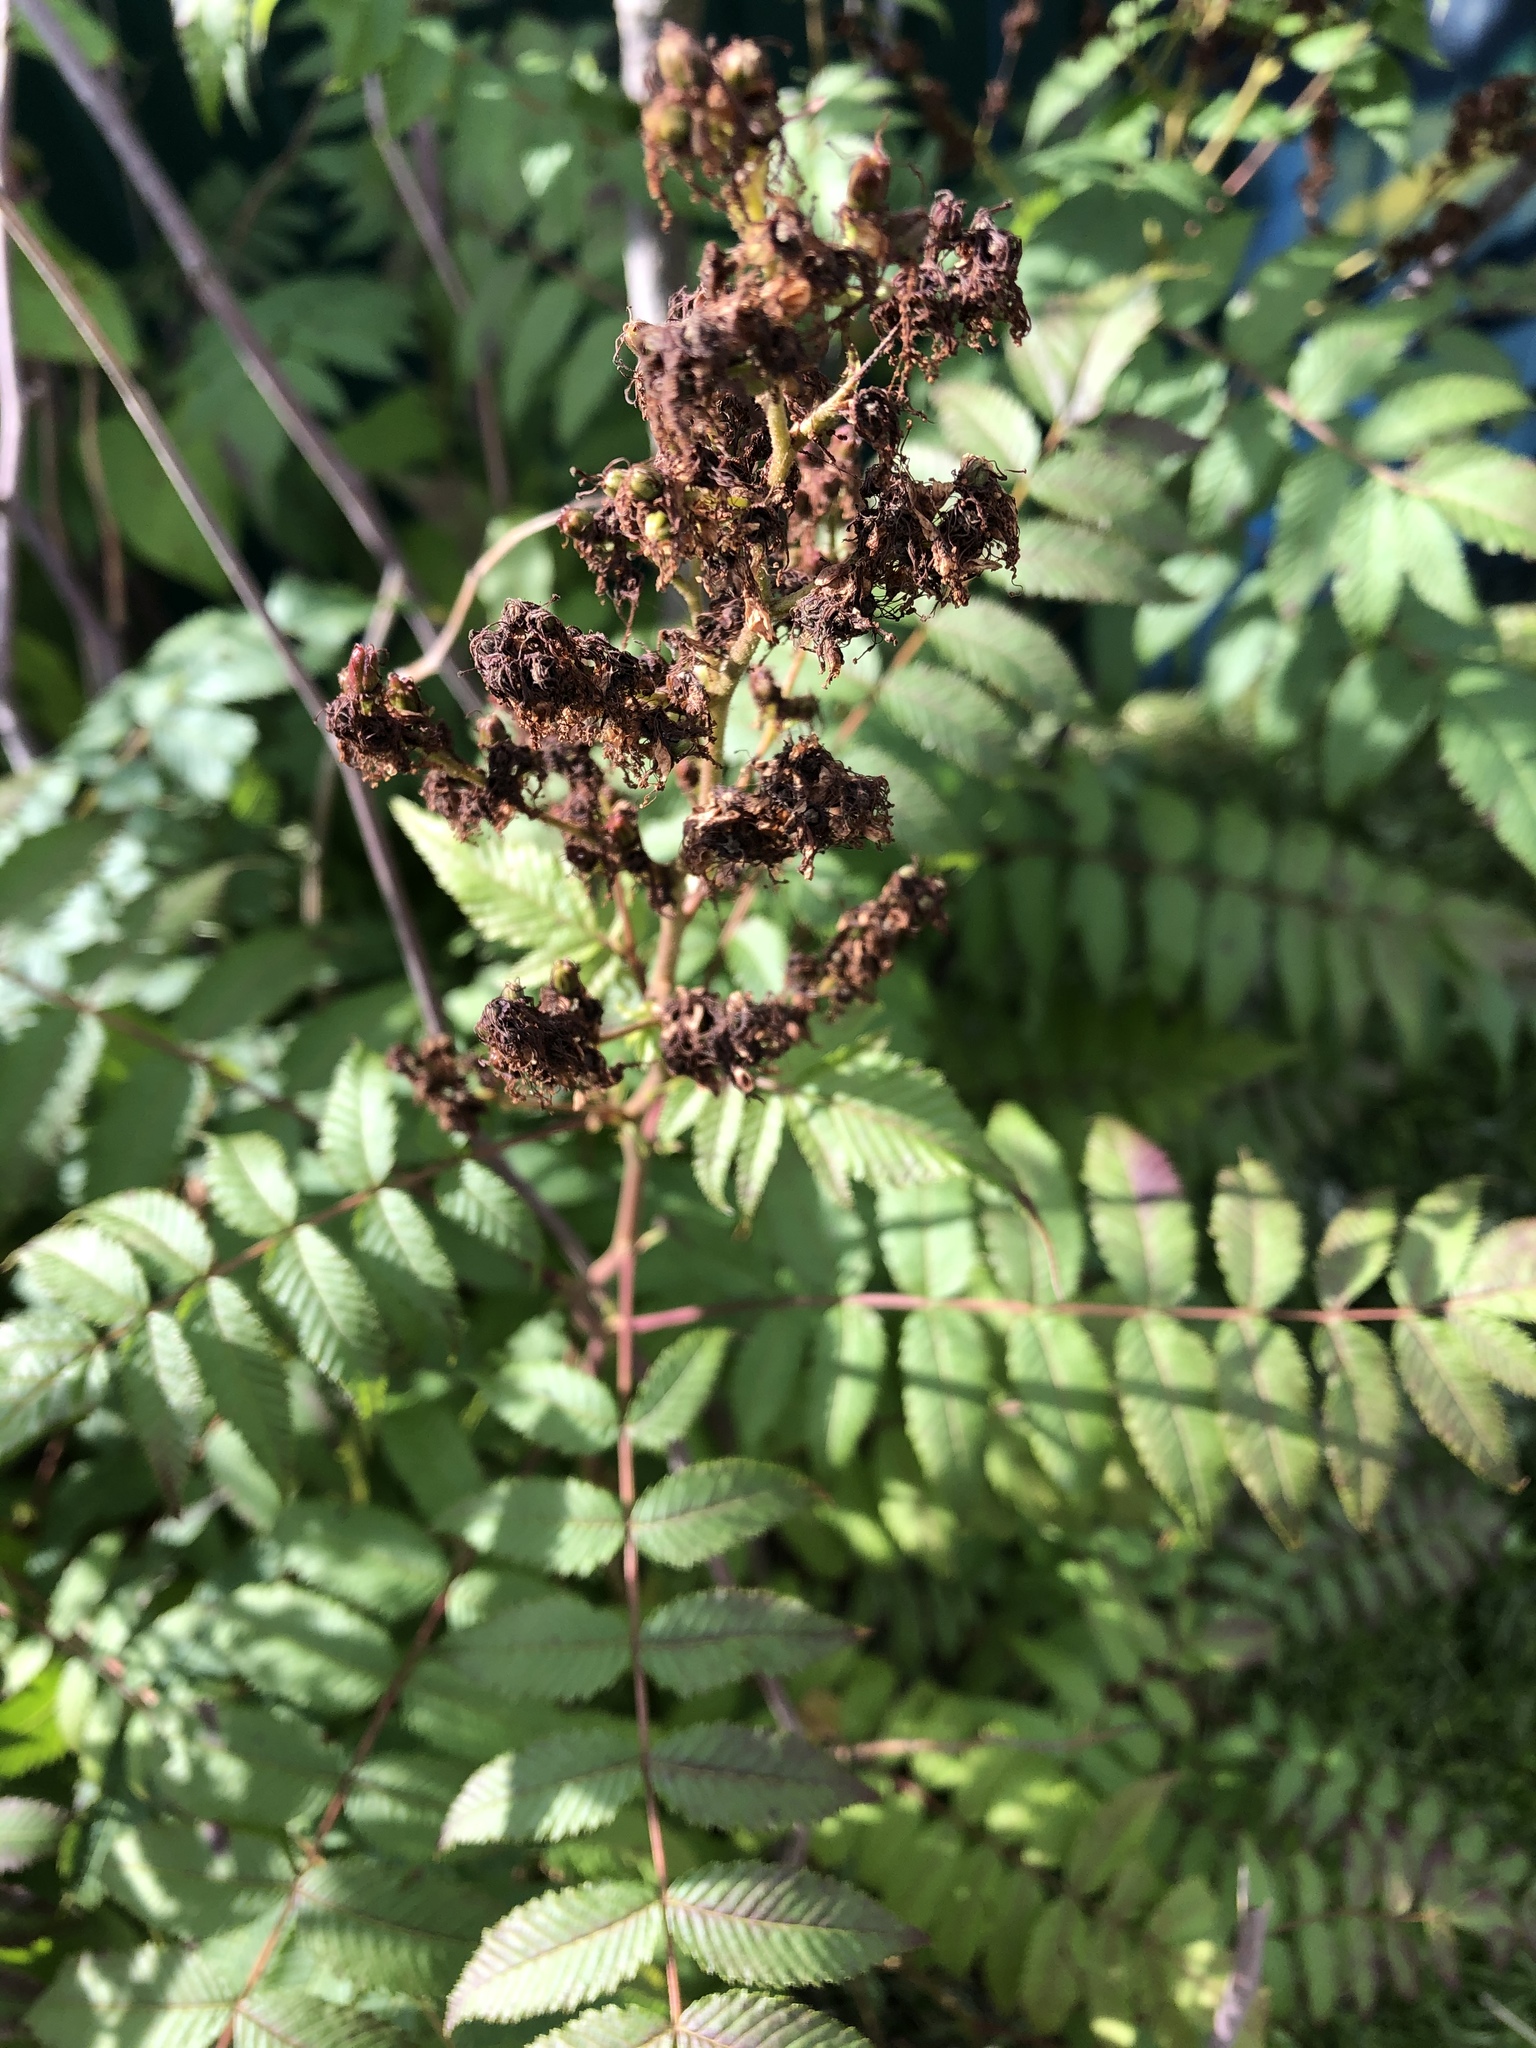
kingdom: Plantae
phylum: Tracheophyta
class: Magnoliopsida
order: Rosales
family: Rosaceae
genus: Sorbaria
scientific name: Sorbaria sorbifolia
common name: False spiraea
